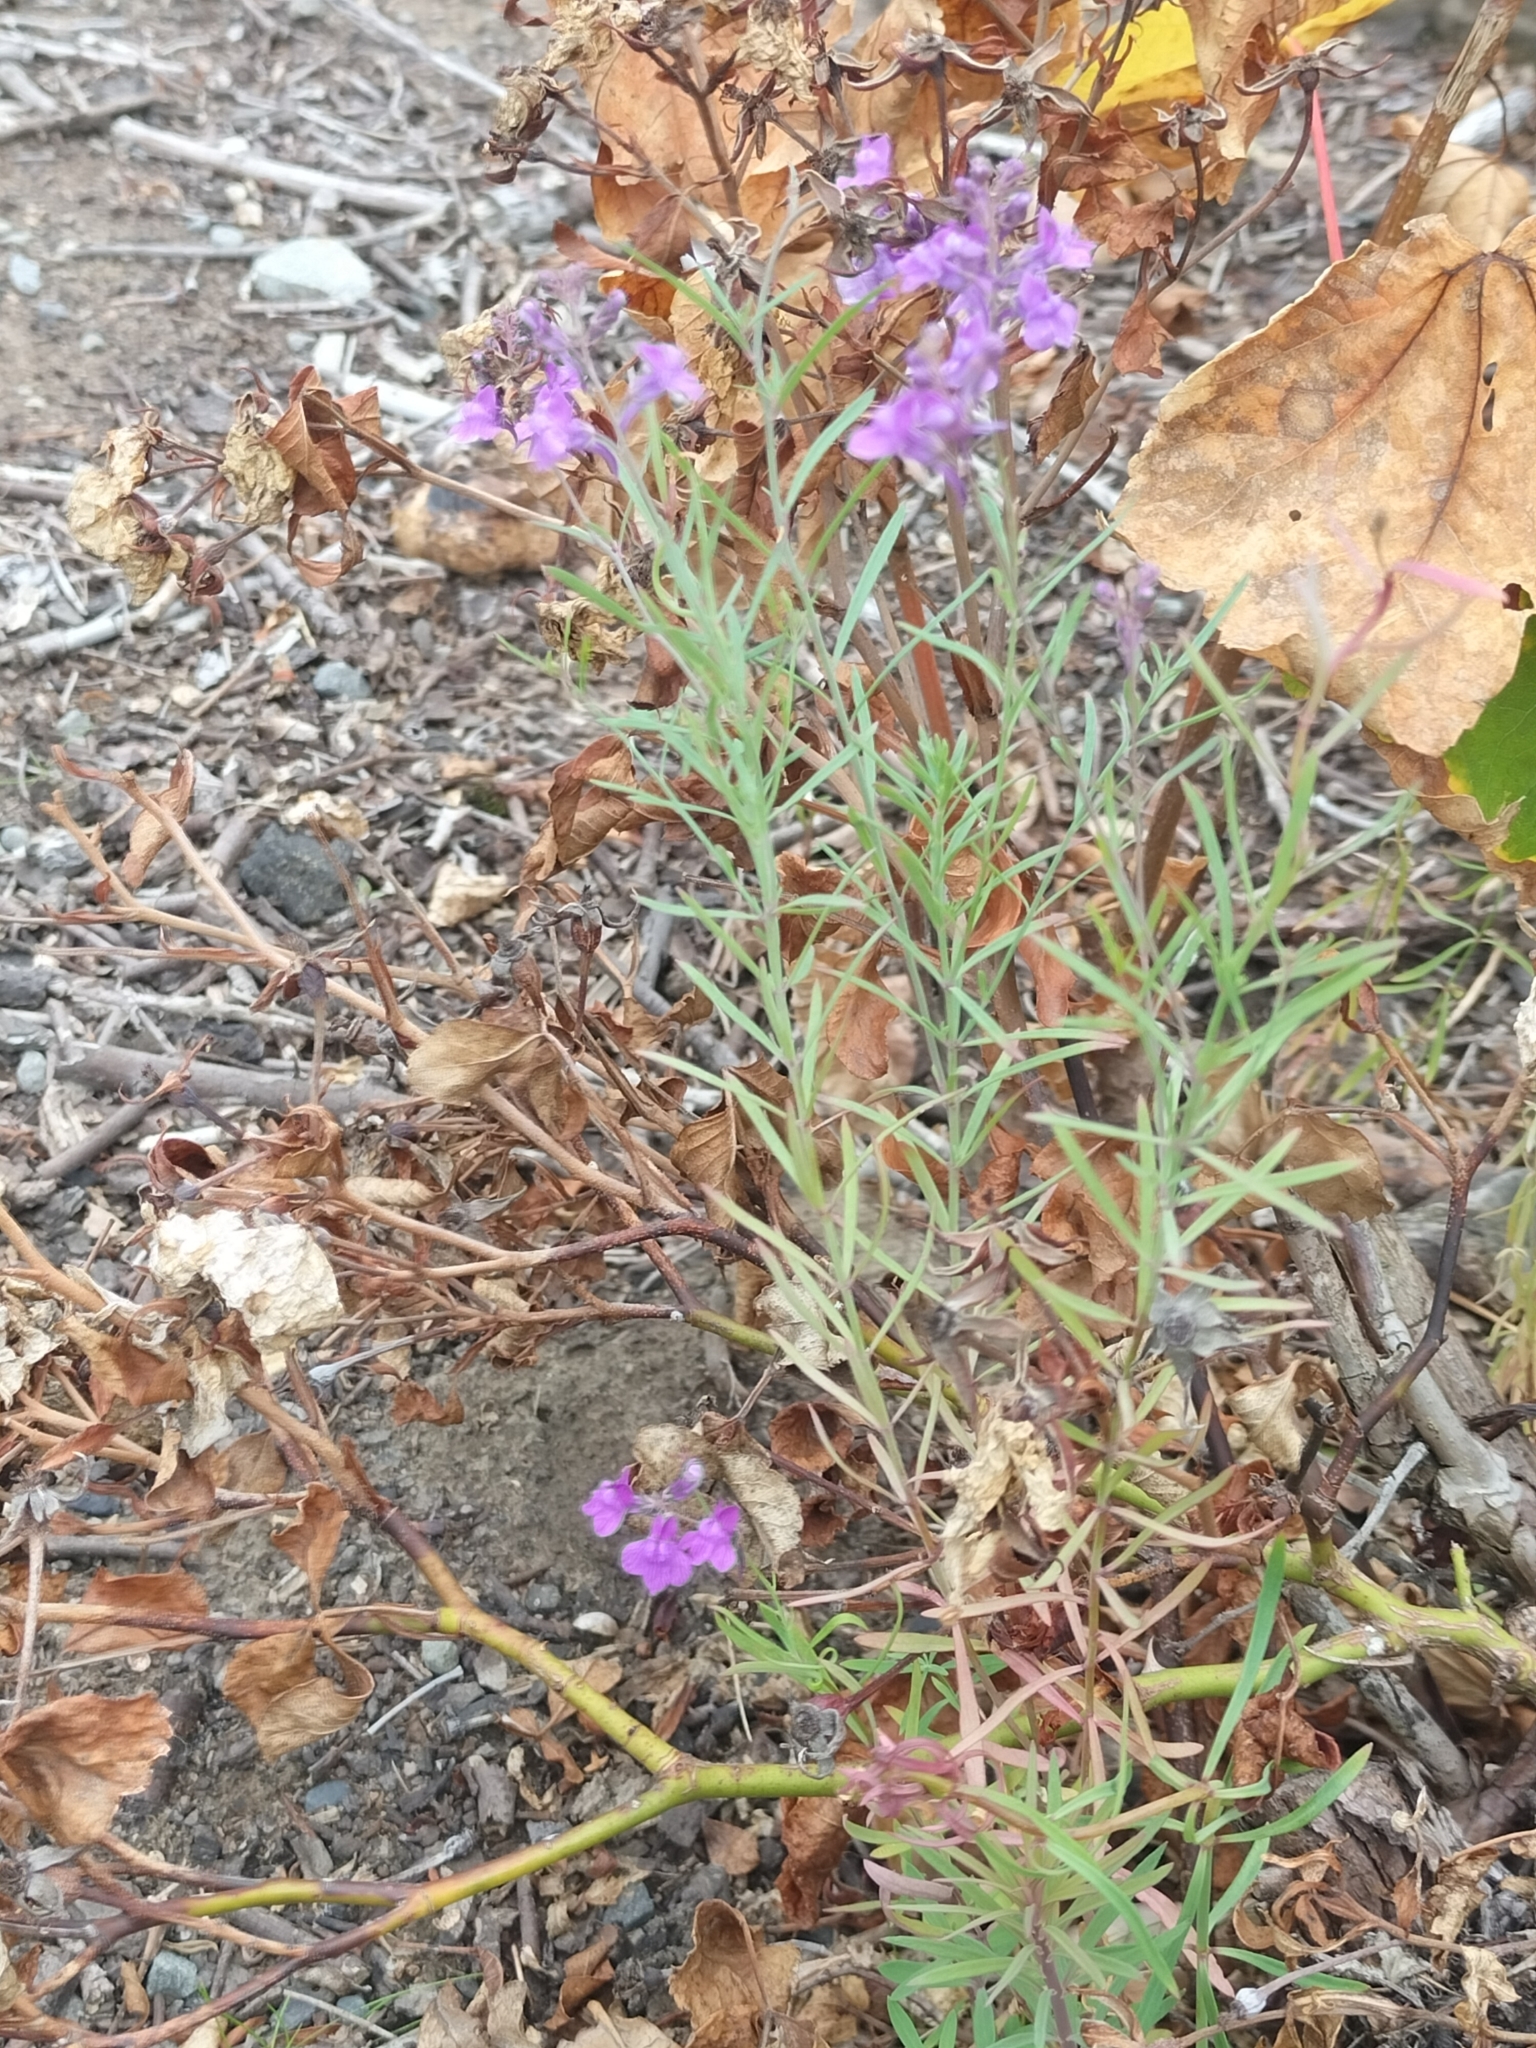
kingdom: Plantae
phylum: Tracheophyta
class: Magnoliopsida
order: Lamiales
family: Plantaginaceae
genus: Linaria
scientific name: Linaria purpurea
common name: Purple toadflax
